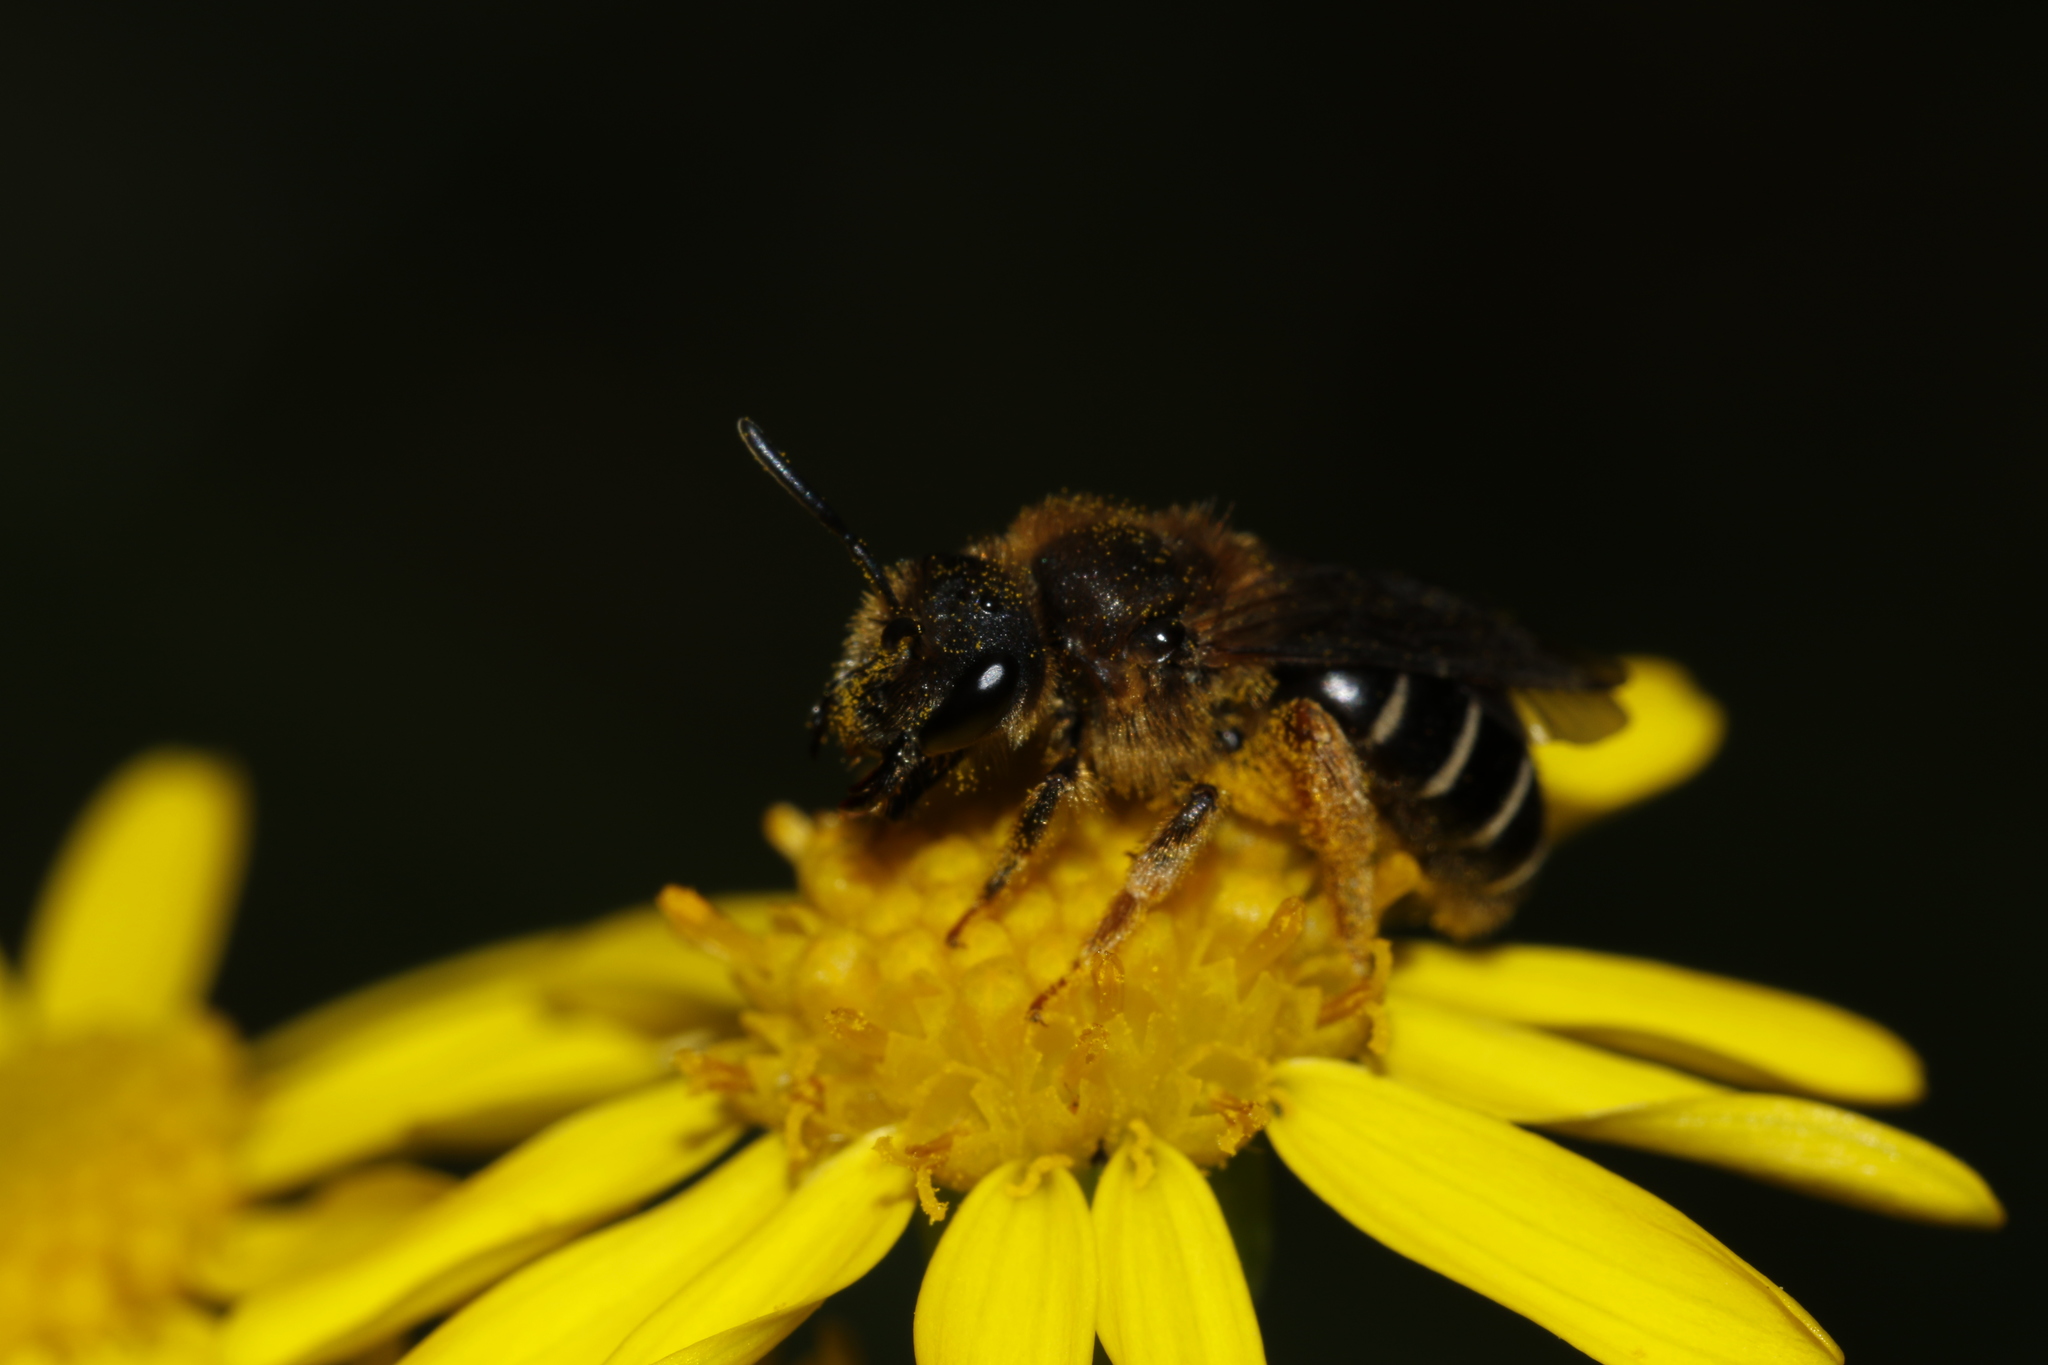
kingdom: Animalia
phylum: Arthropoda
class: Insecta
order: Hymenoptera
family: Halictidae
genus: Halictus
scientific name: Halictus rubicundus
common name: Orange-legged furrow bee
